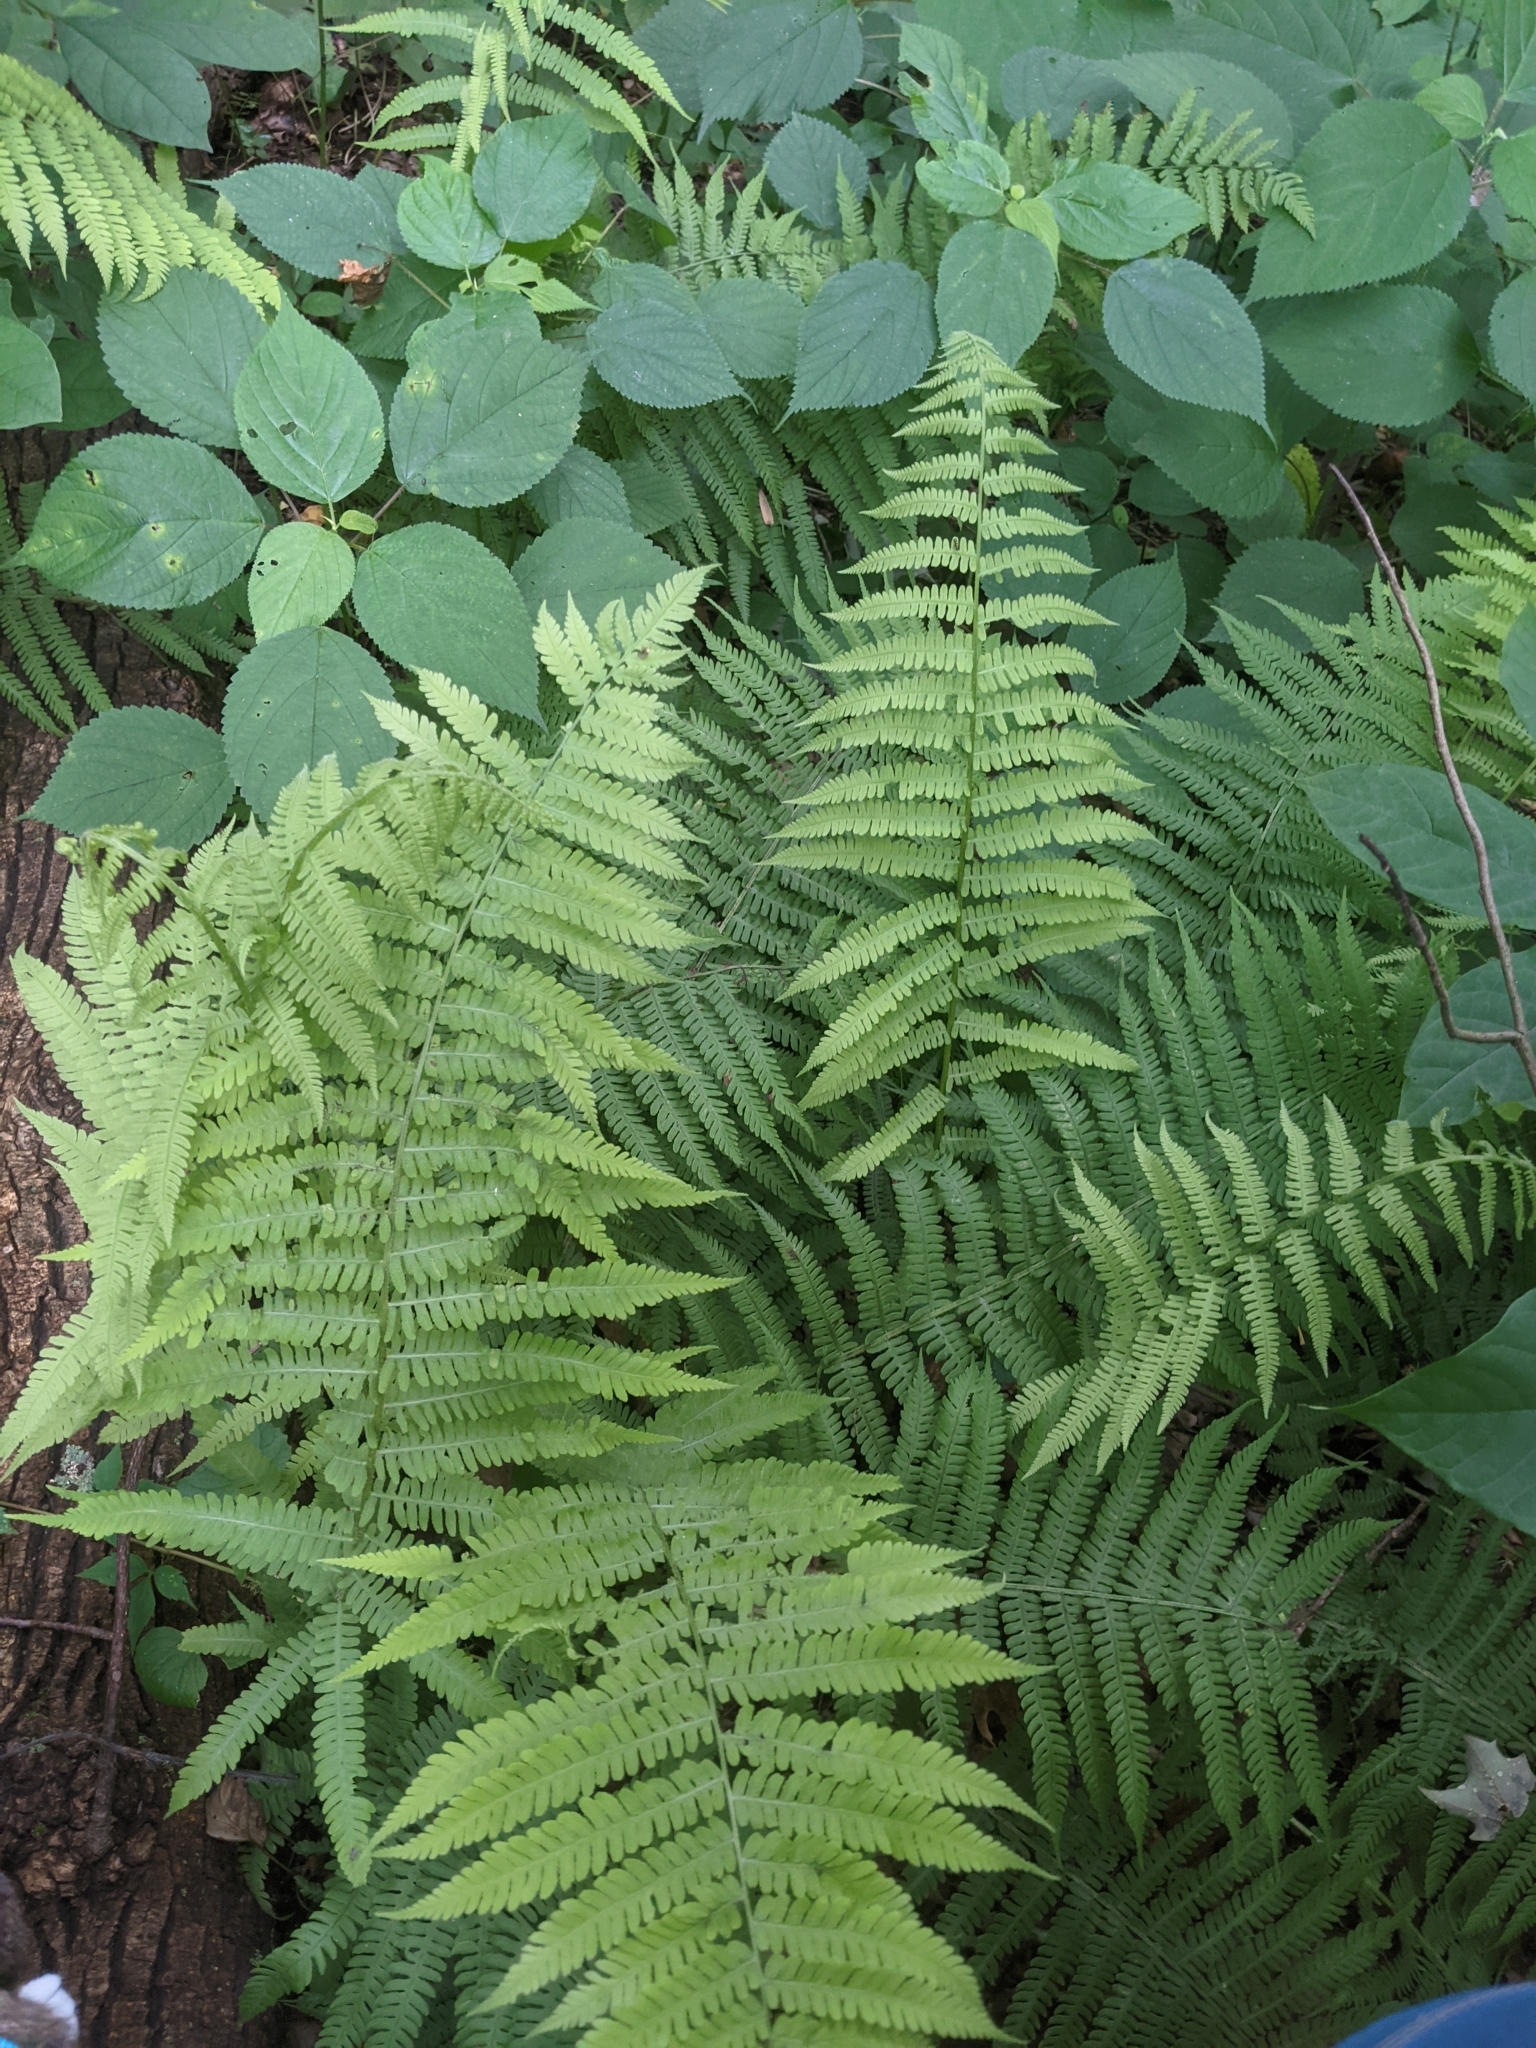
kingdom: Plantae
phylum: Tracheophyta
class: Polypodiopsida
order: Polypodiales
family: Athyriaceae
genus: Deparia
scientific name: Deparia acrostichoides
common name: Silver false spleenwort
